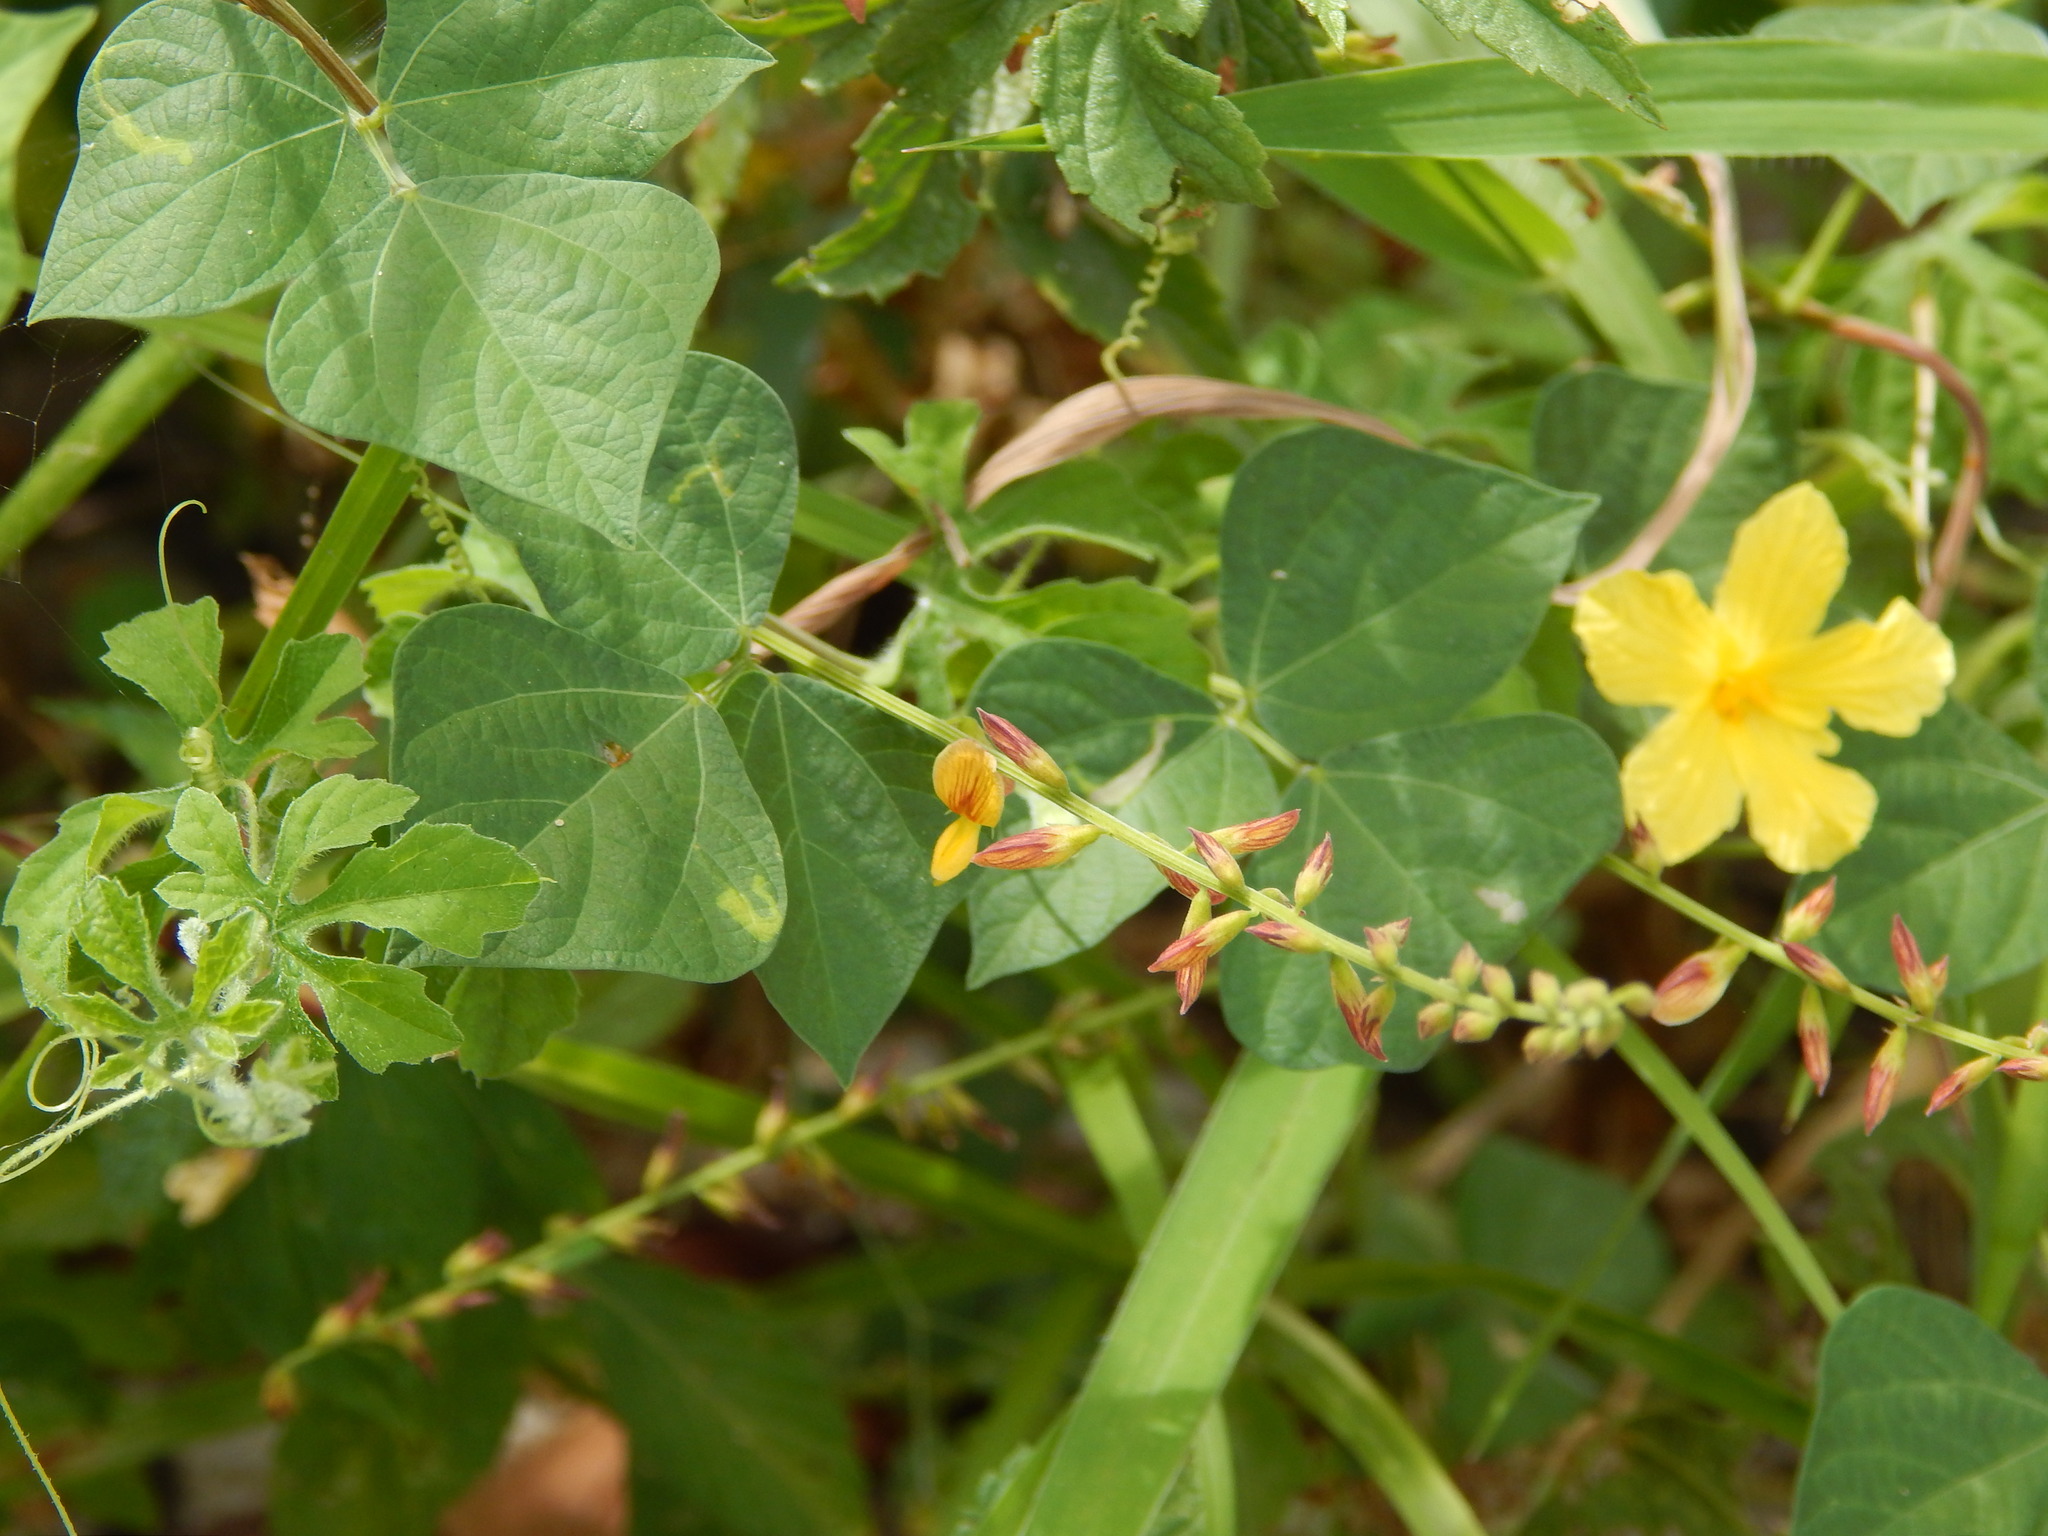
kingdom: Plantae
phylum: Tracheophyta
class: Magnoliopsida
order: Fabales
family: Fabaceae
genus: Rhynchosia
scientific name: Rhynchosia minima
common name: Least snoutbean
